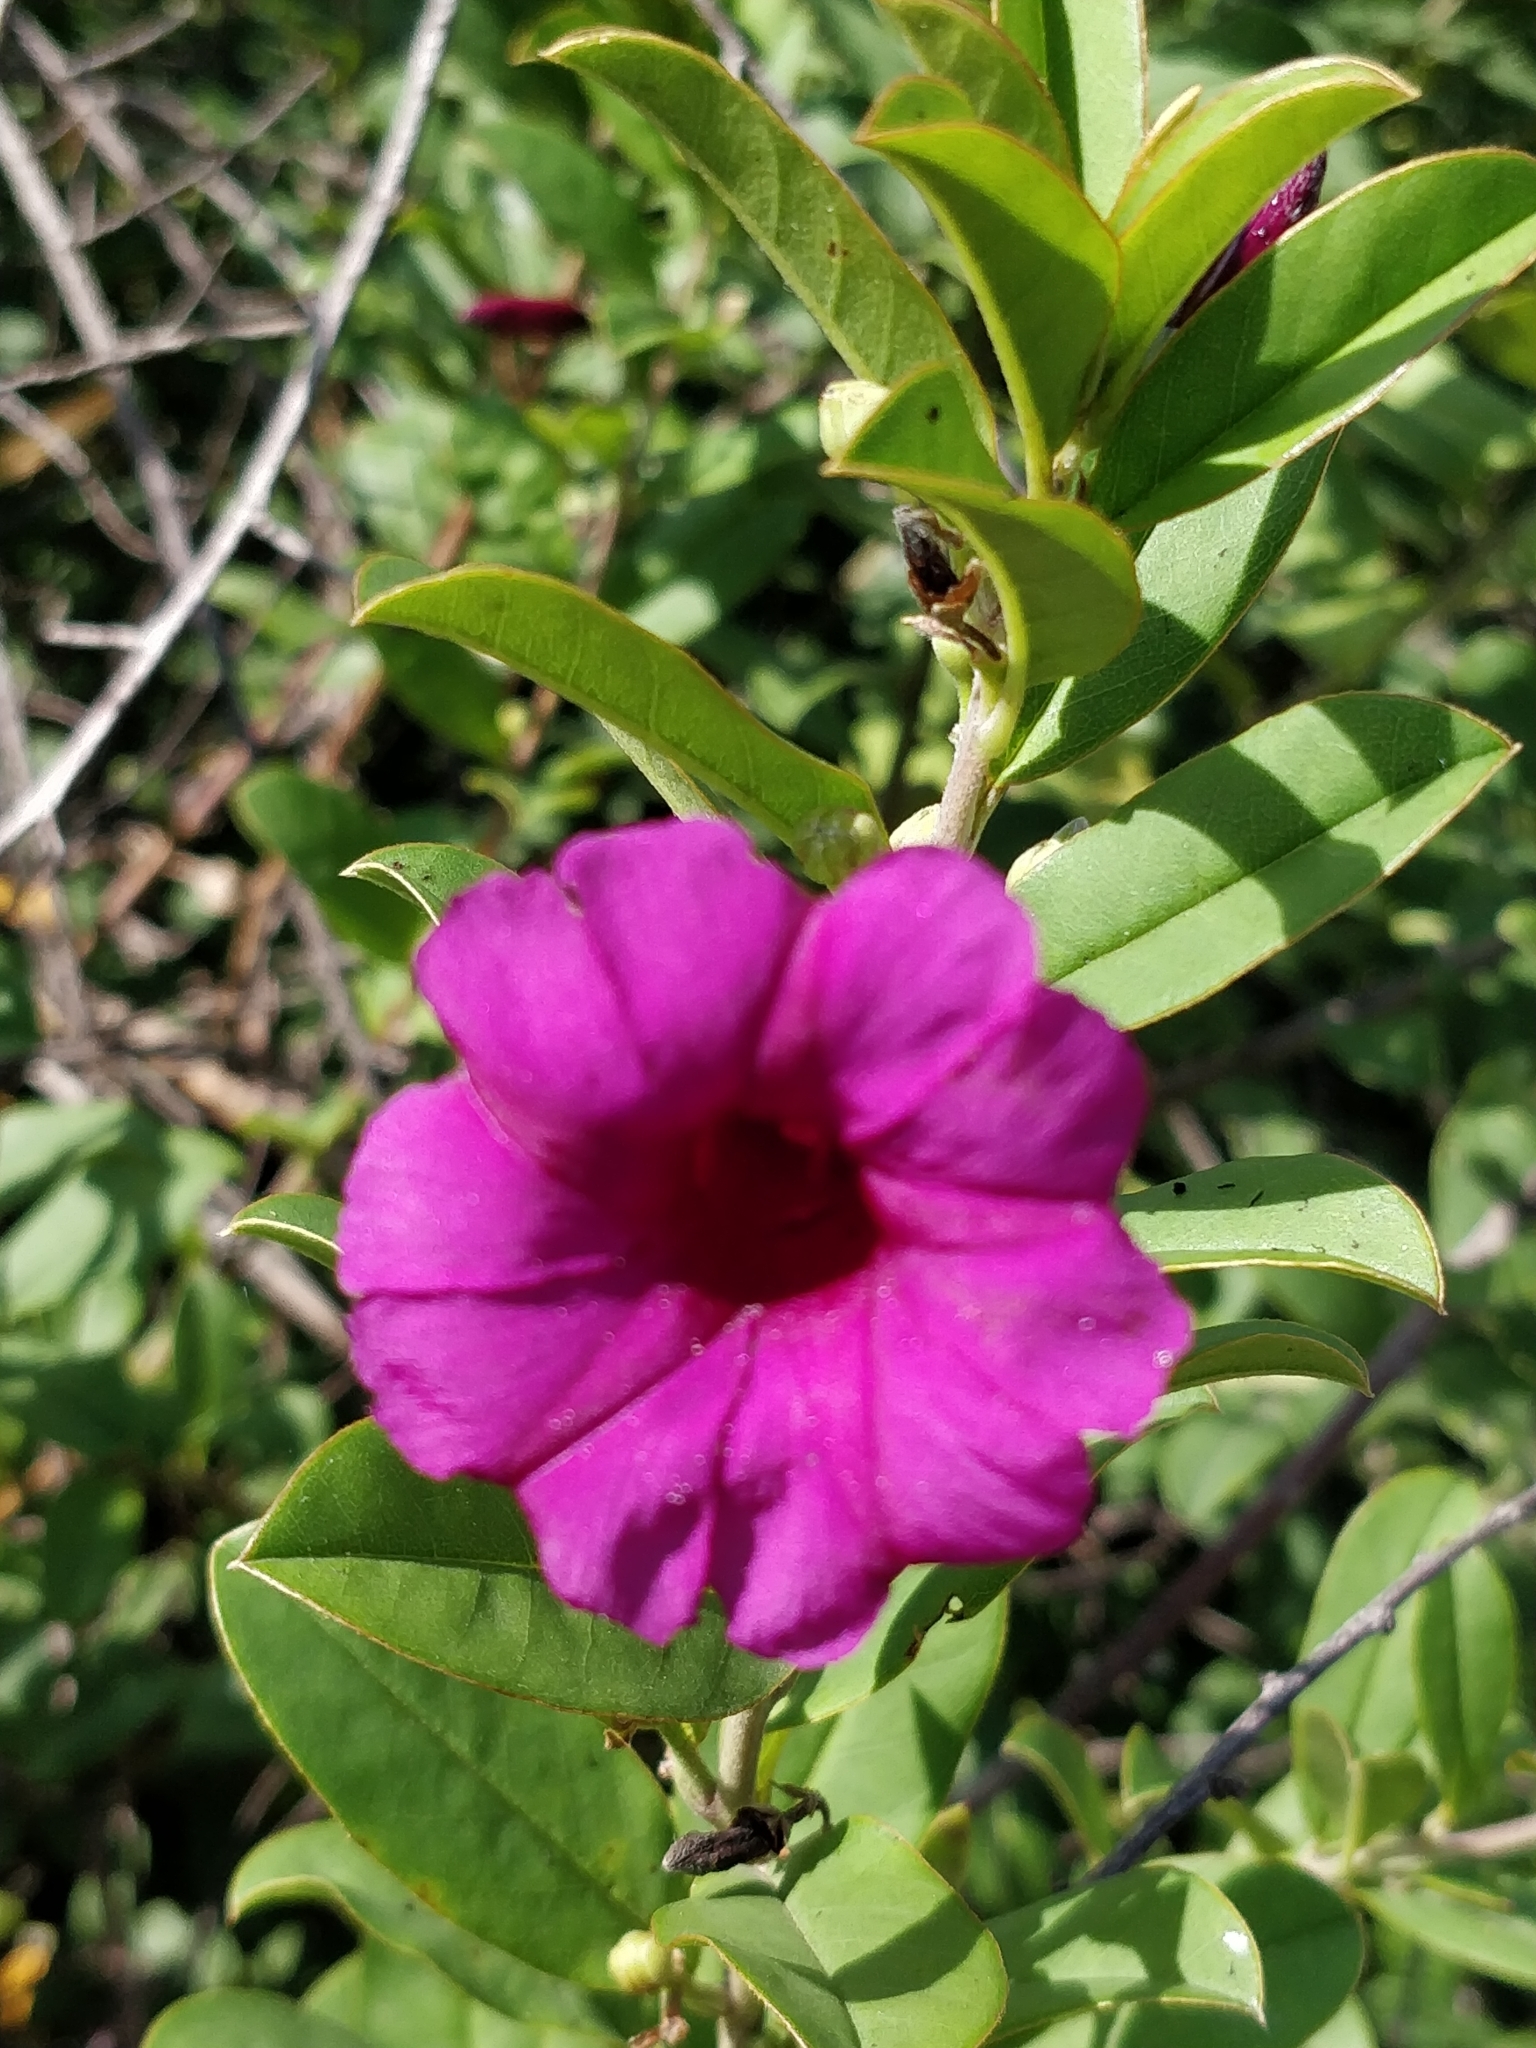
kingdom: Plantae
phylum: Tracheophyta
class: Magnoliopsida
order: Solanales
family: Convolvulaceae
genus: Argyreia
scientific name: Argyreia cuneata
